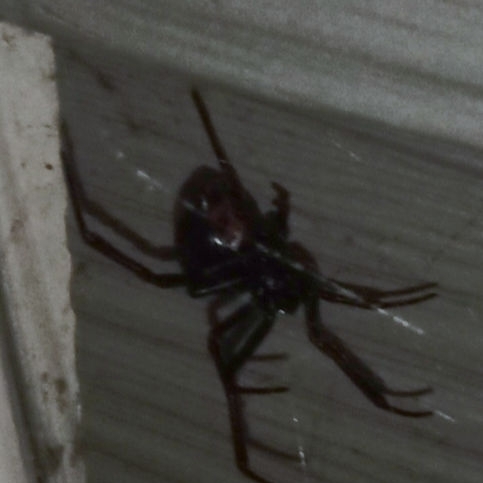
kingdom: Animalia
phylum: Arthropoda
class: Arachnida
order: Araneae
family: Theridiidae
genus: Latrodectus
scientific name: Latrodectus mactans
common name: Cobweb spiders
